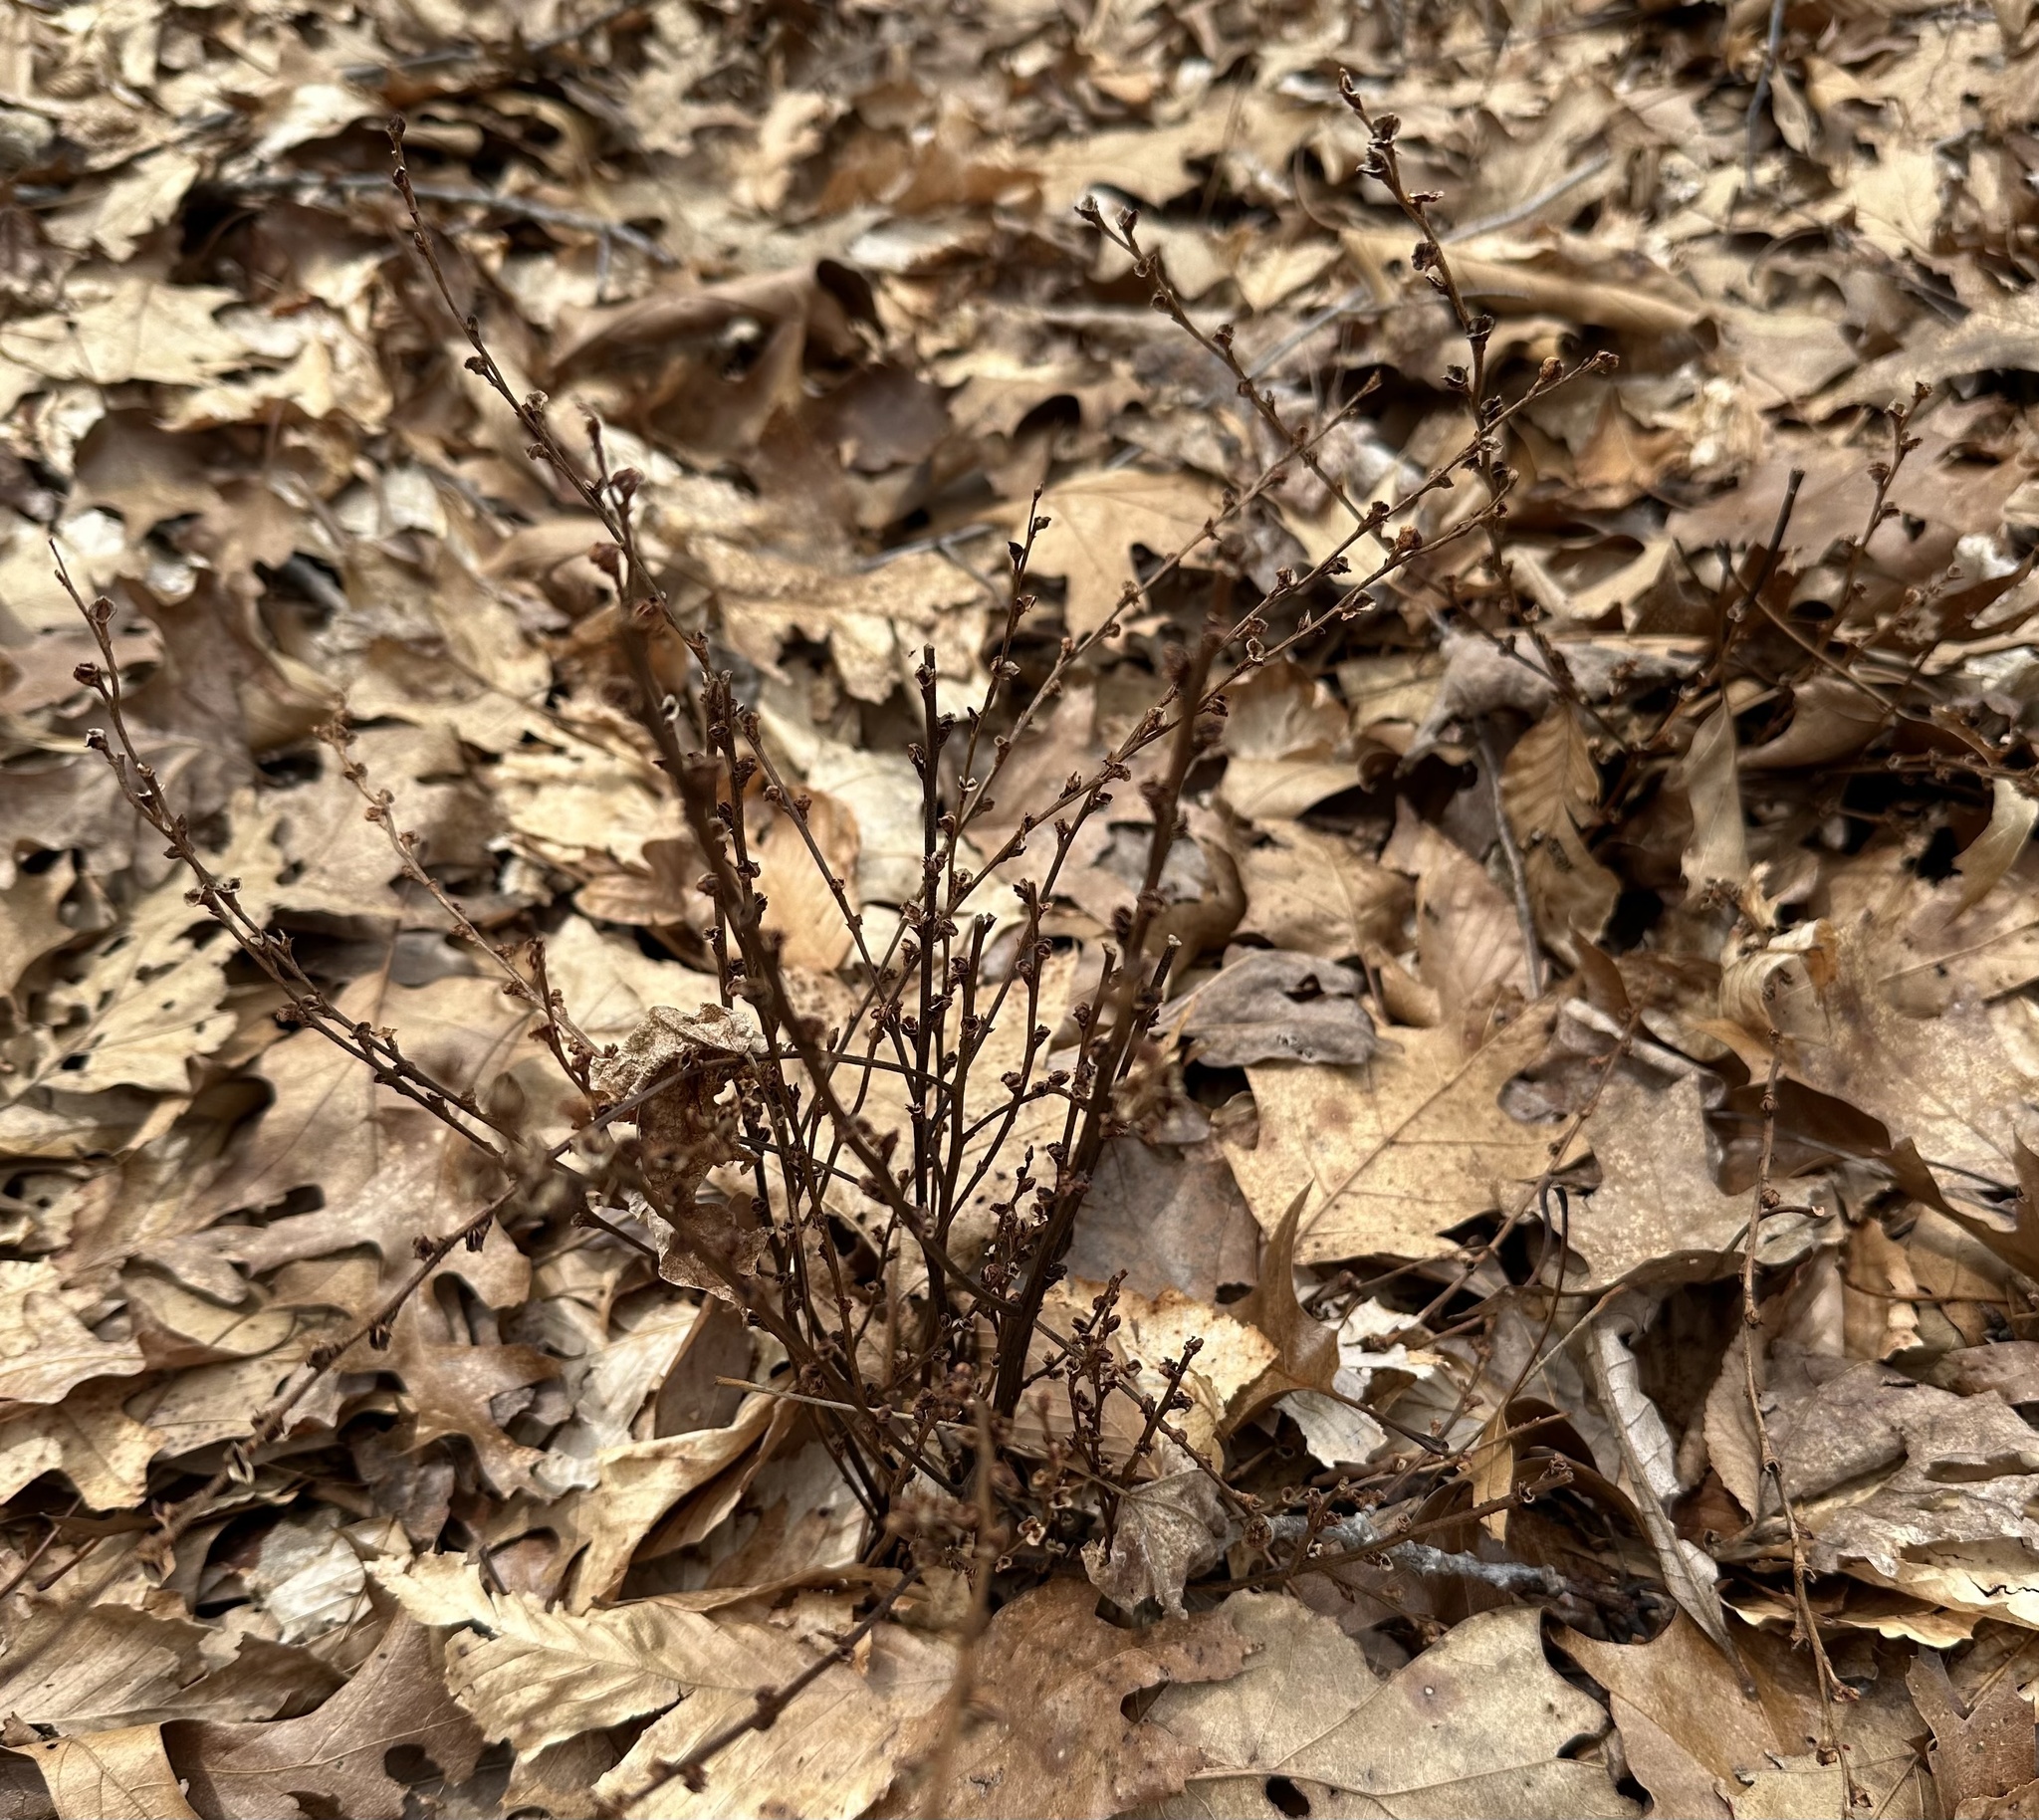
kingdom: Plantae
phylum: Tracheophyta
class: Magnoliopsida
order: Lamiales
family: Orobanchaceae
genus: Epifagus
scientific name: Epifagus virginiana
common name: Beechdrops
